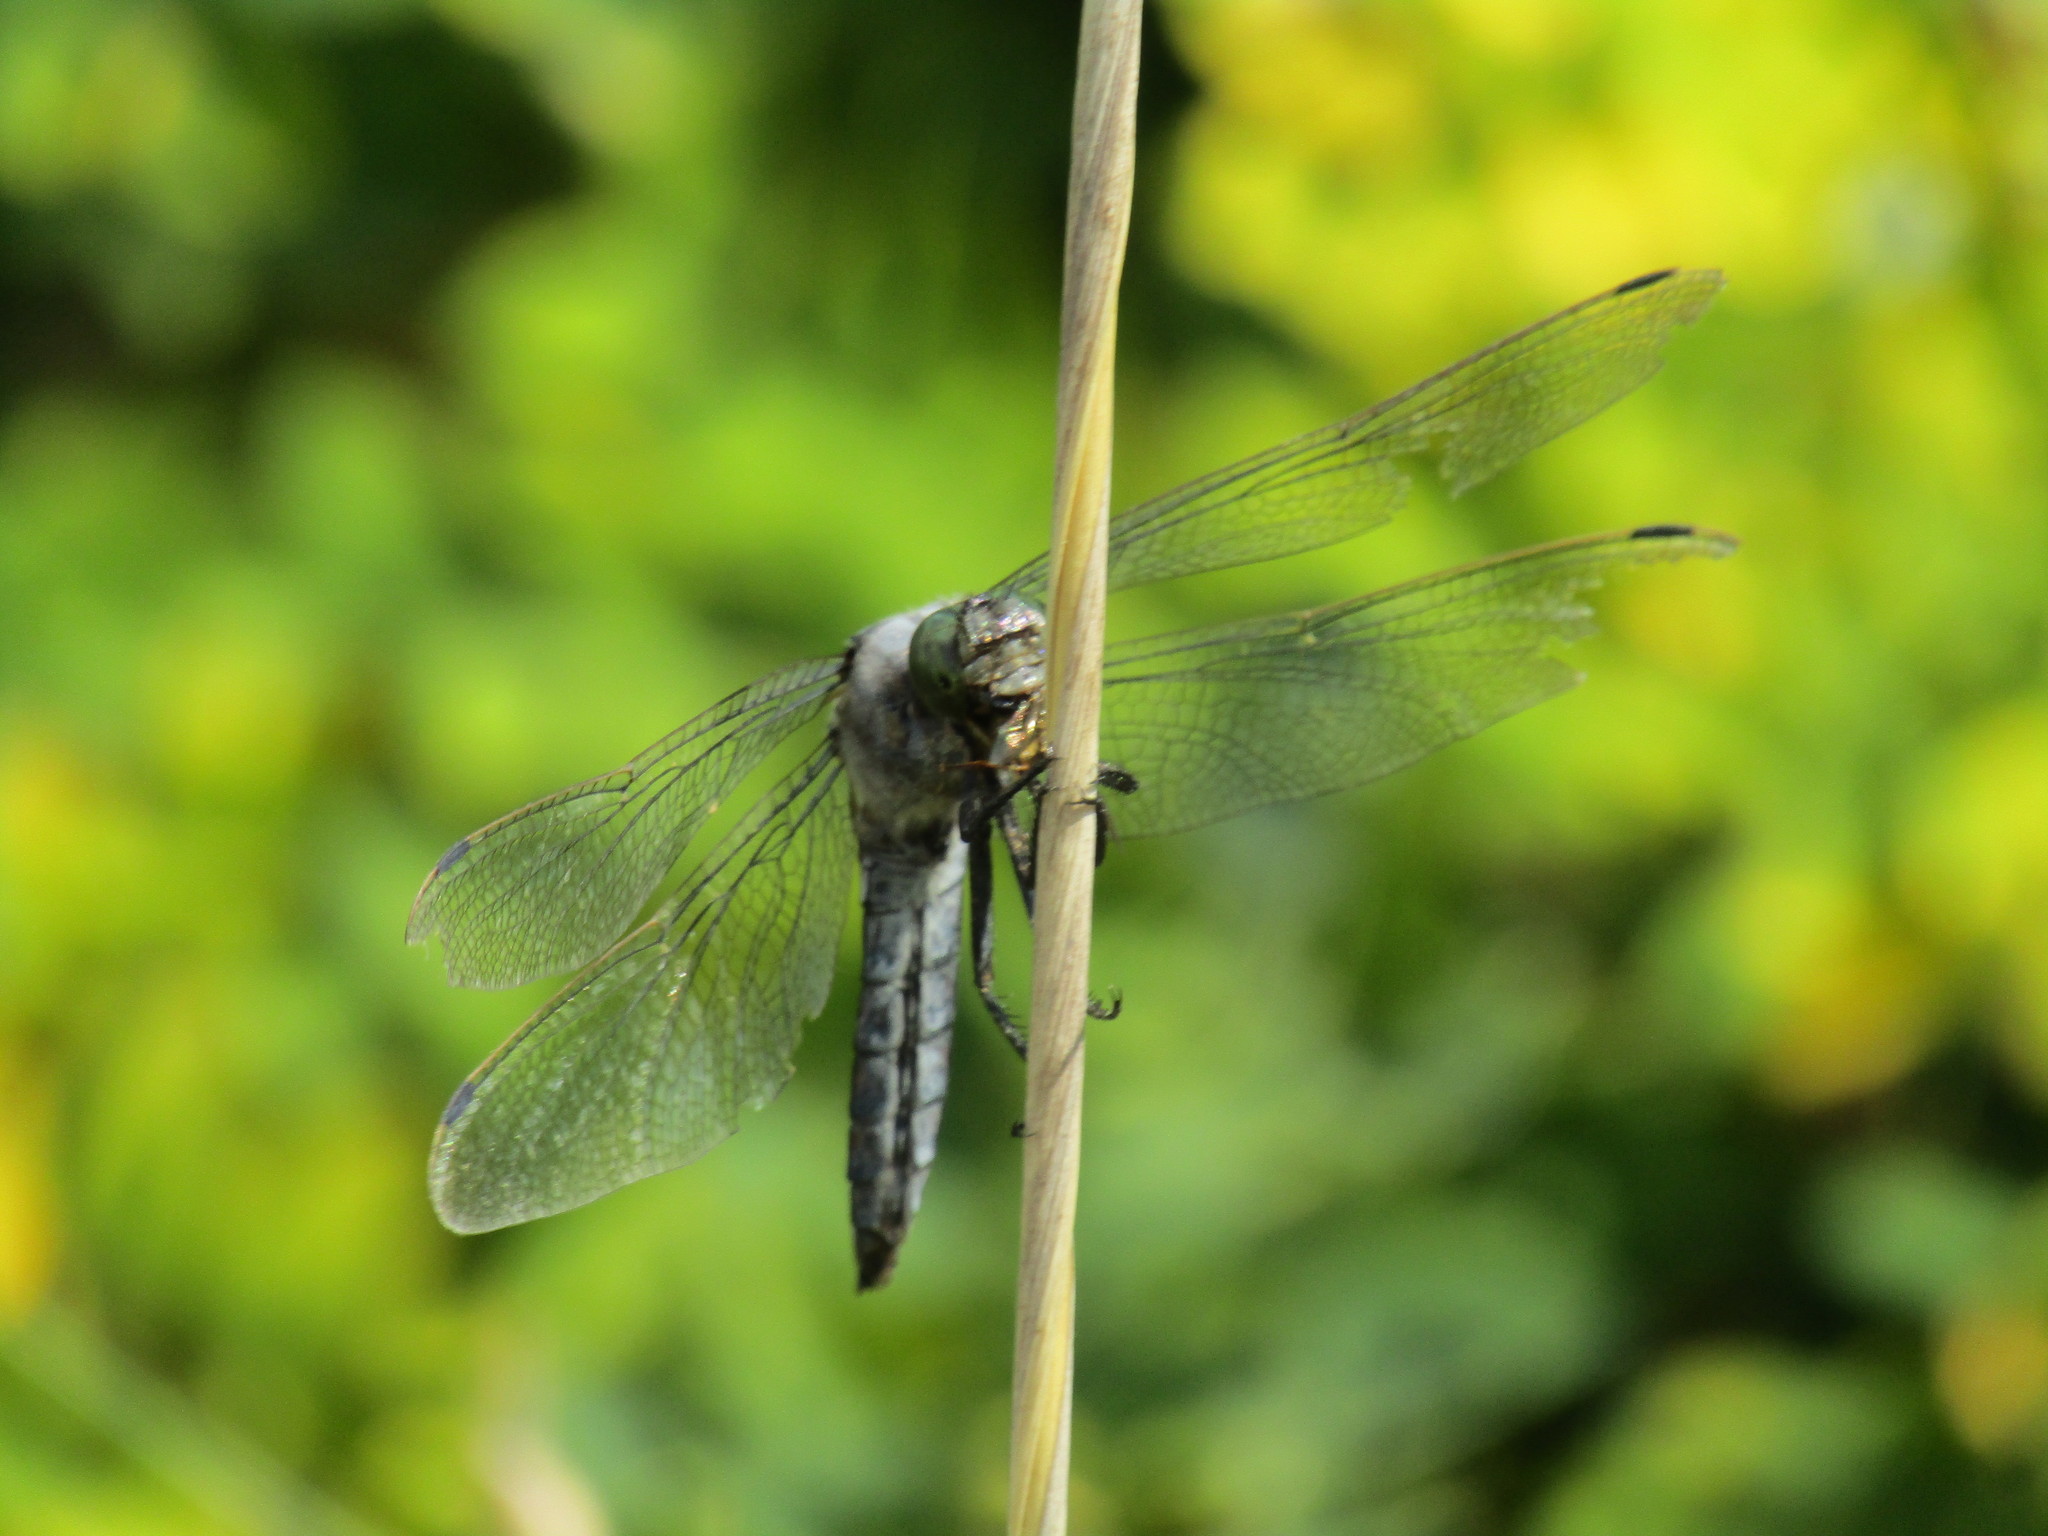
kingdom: Animalia
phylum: Arthropoda
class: Insecta
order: Odonata
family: Libellulidae
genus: Orthetrum
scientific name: Orthetrum cancellatum
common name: Black-tailed skimmer
